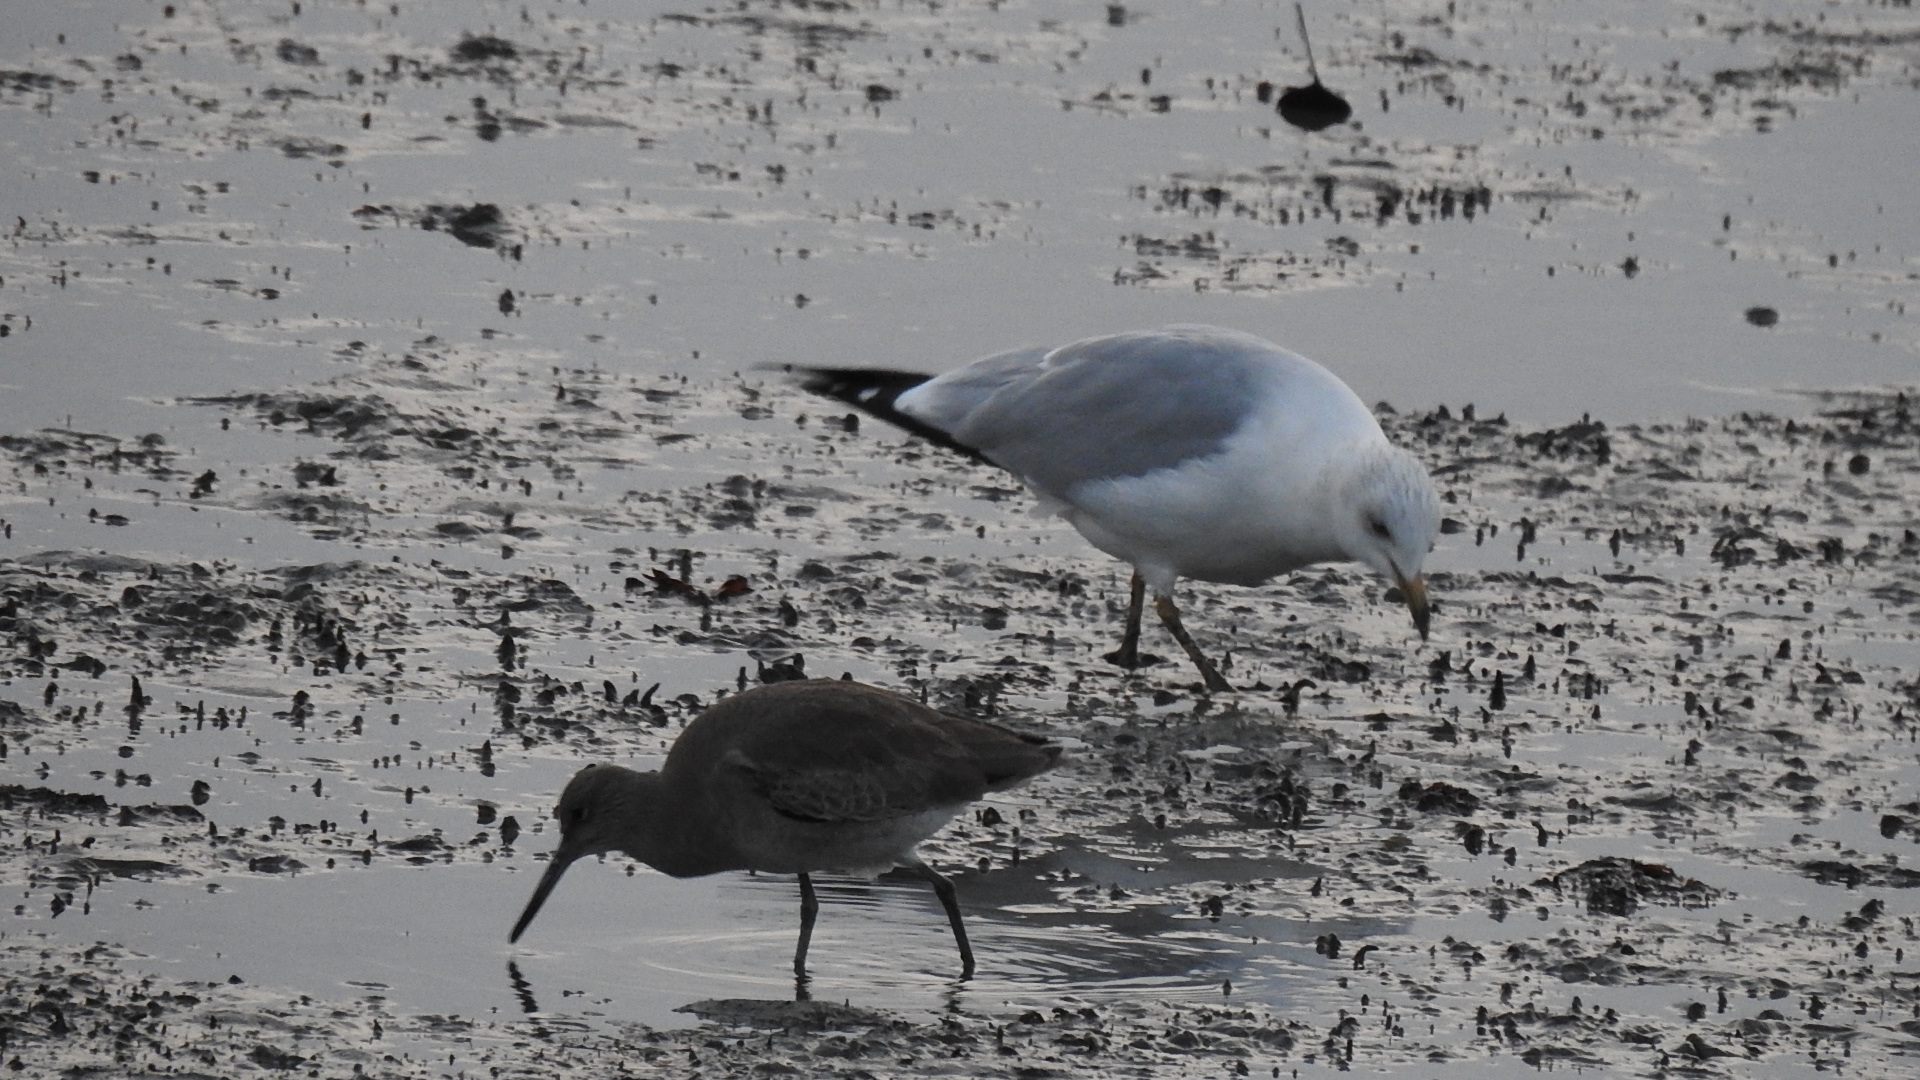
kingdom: Animalia
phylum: Chordata
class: Aves
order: Charadriiformes
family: Laridae
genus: Larus
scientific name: Larus delawarensis
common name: Ring-billed gull
